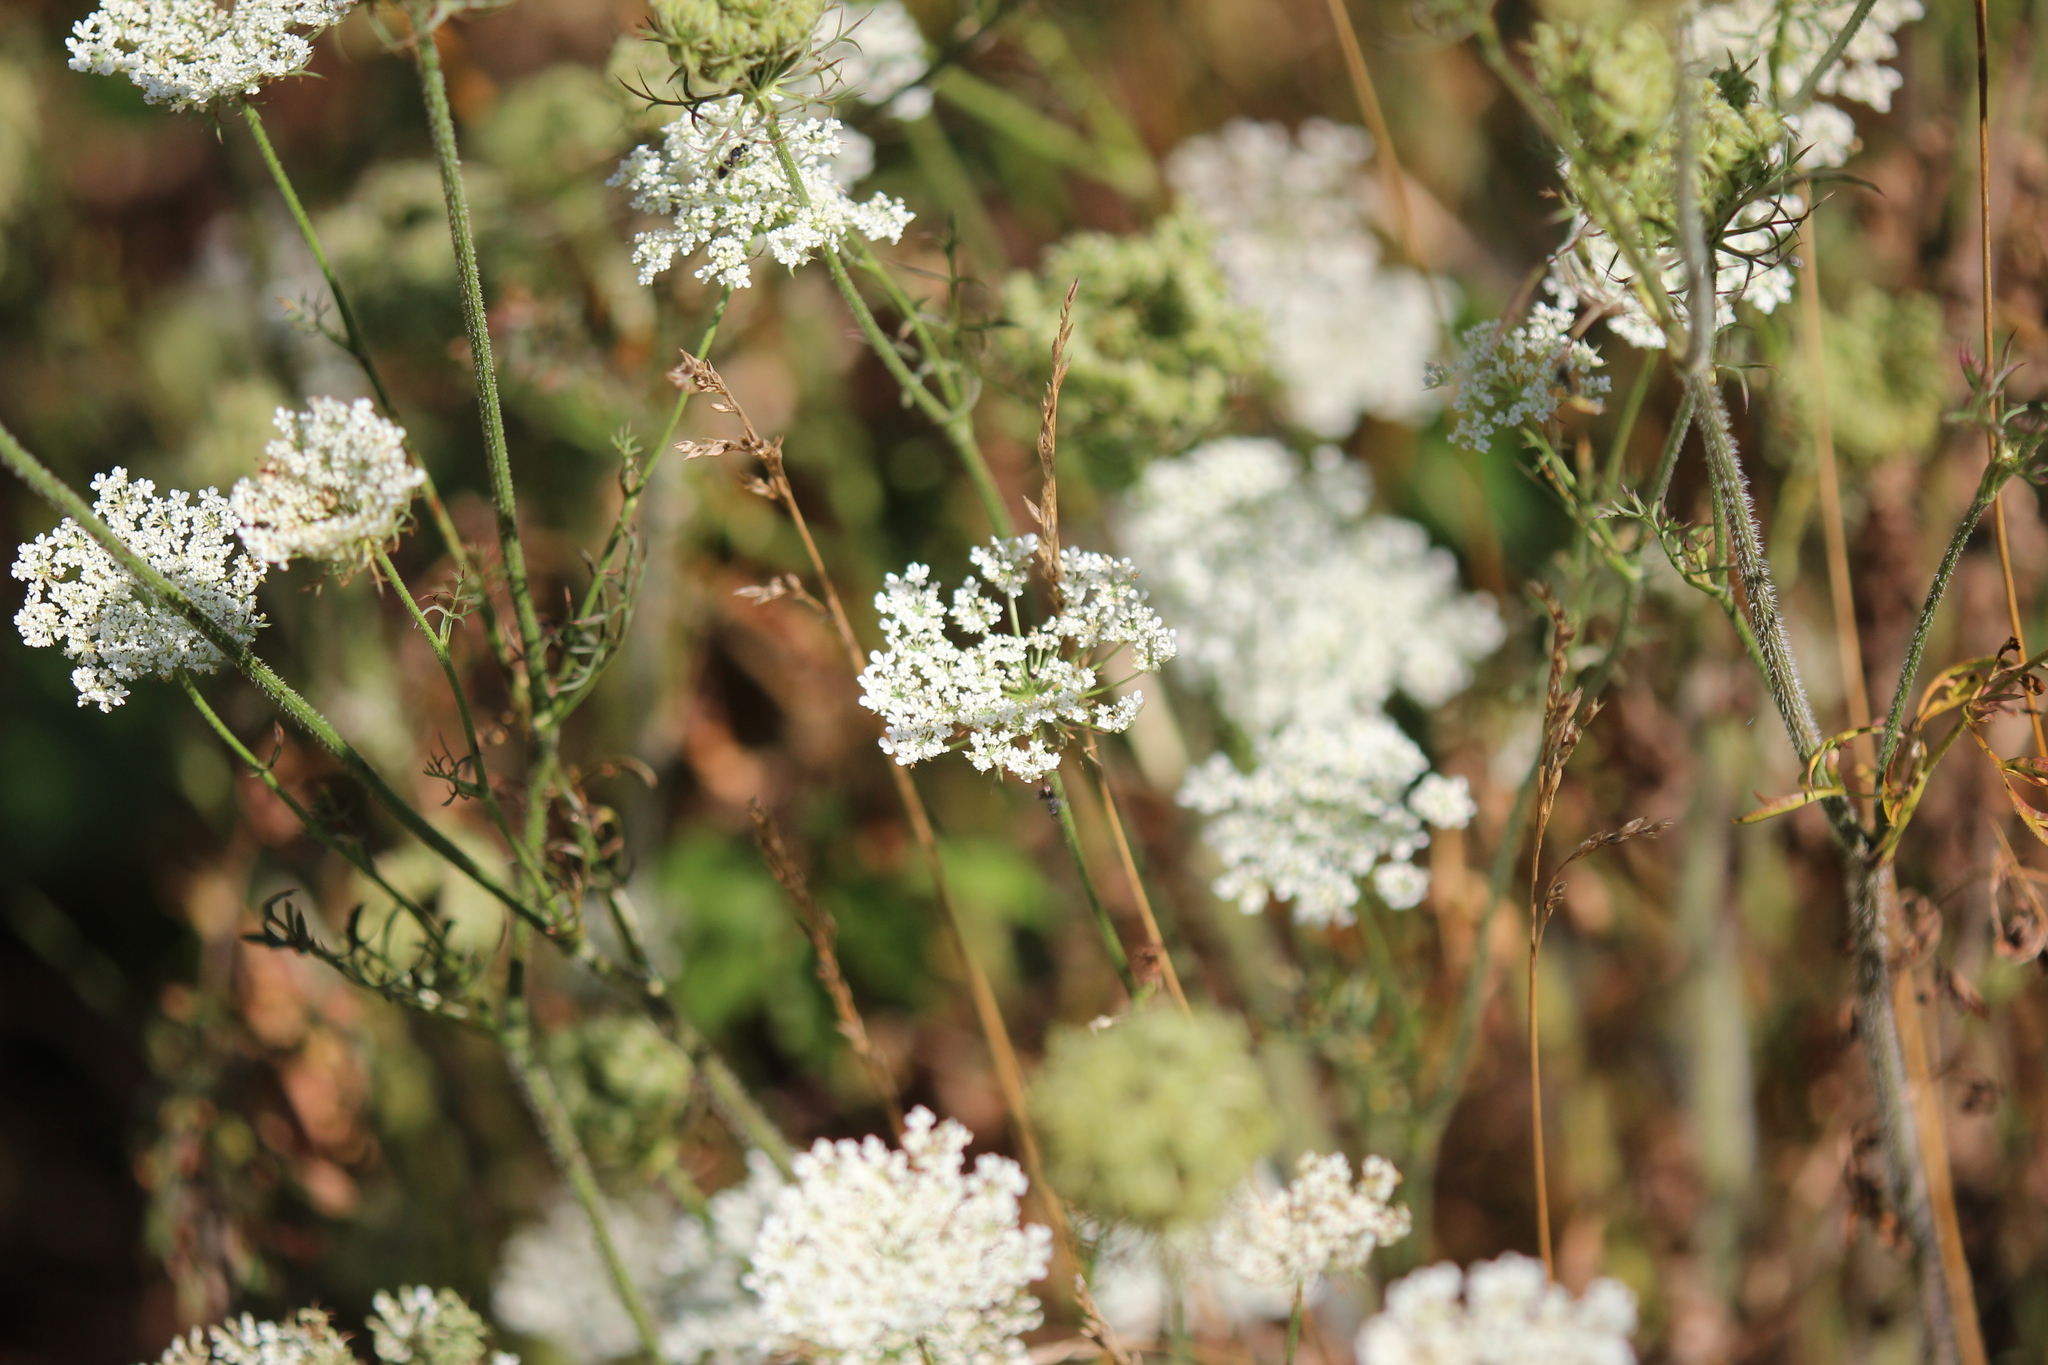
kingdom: Plantae
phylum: Tracheophyta
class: Magnoliopsida
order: Apiales
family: Apiaceae
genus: Daucus
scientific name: Daucus carota
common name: Wild carrot
